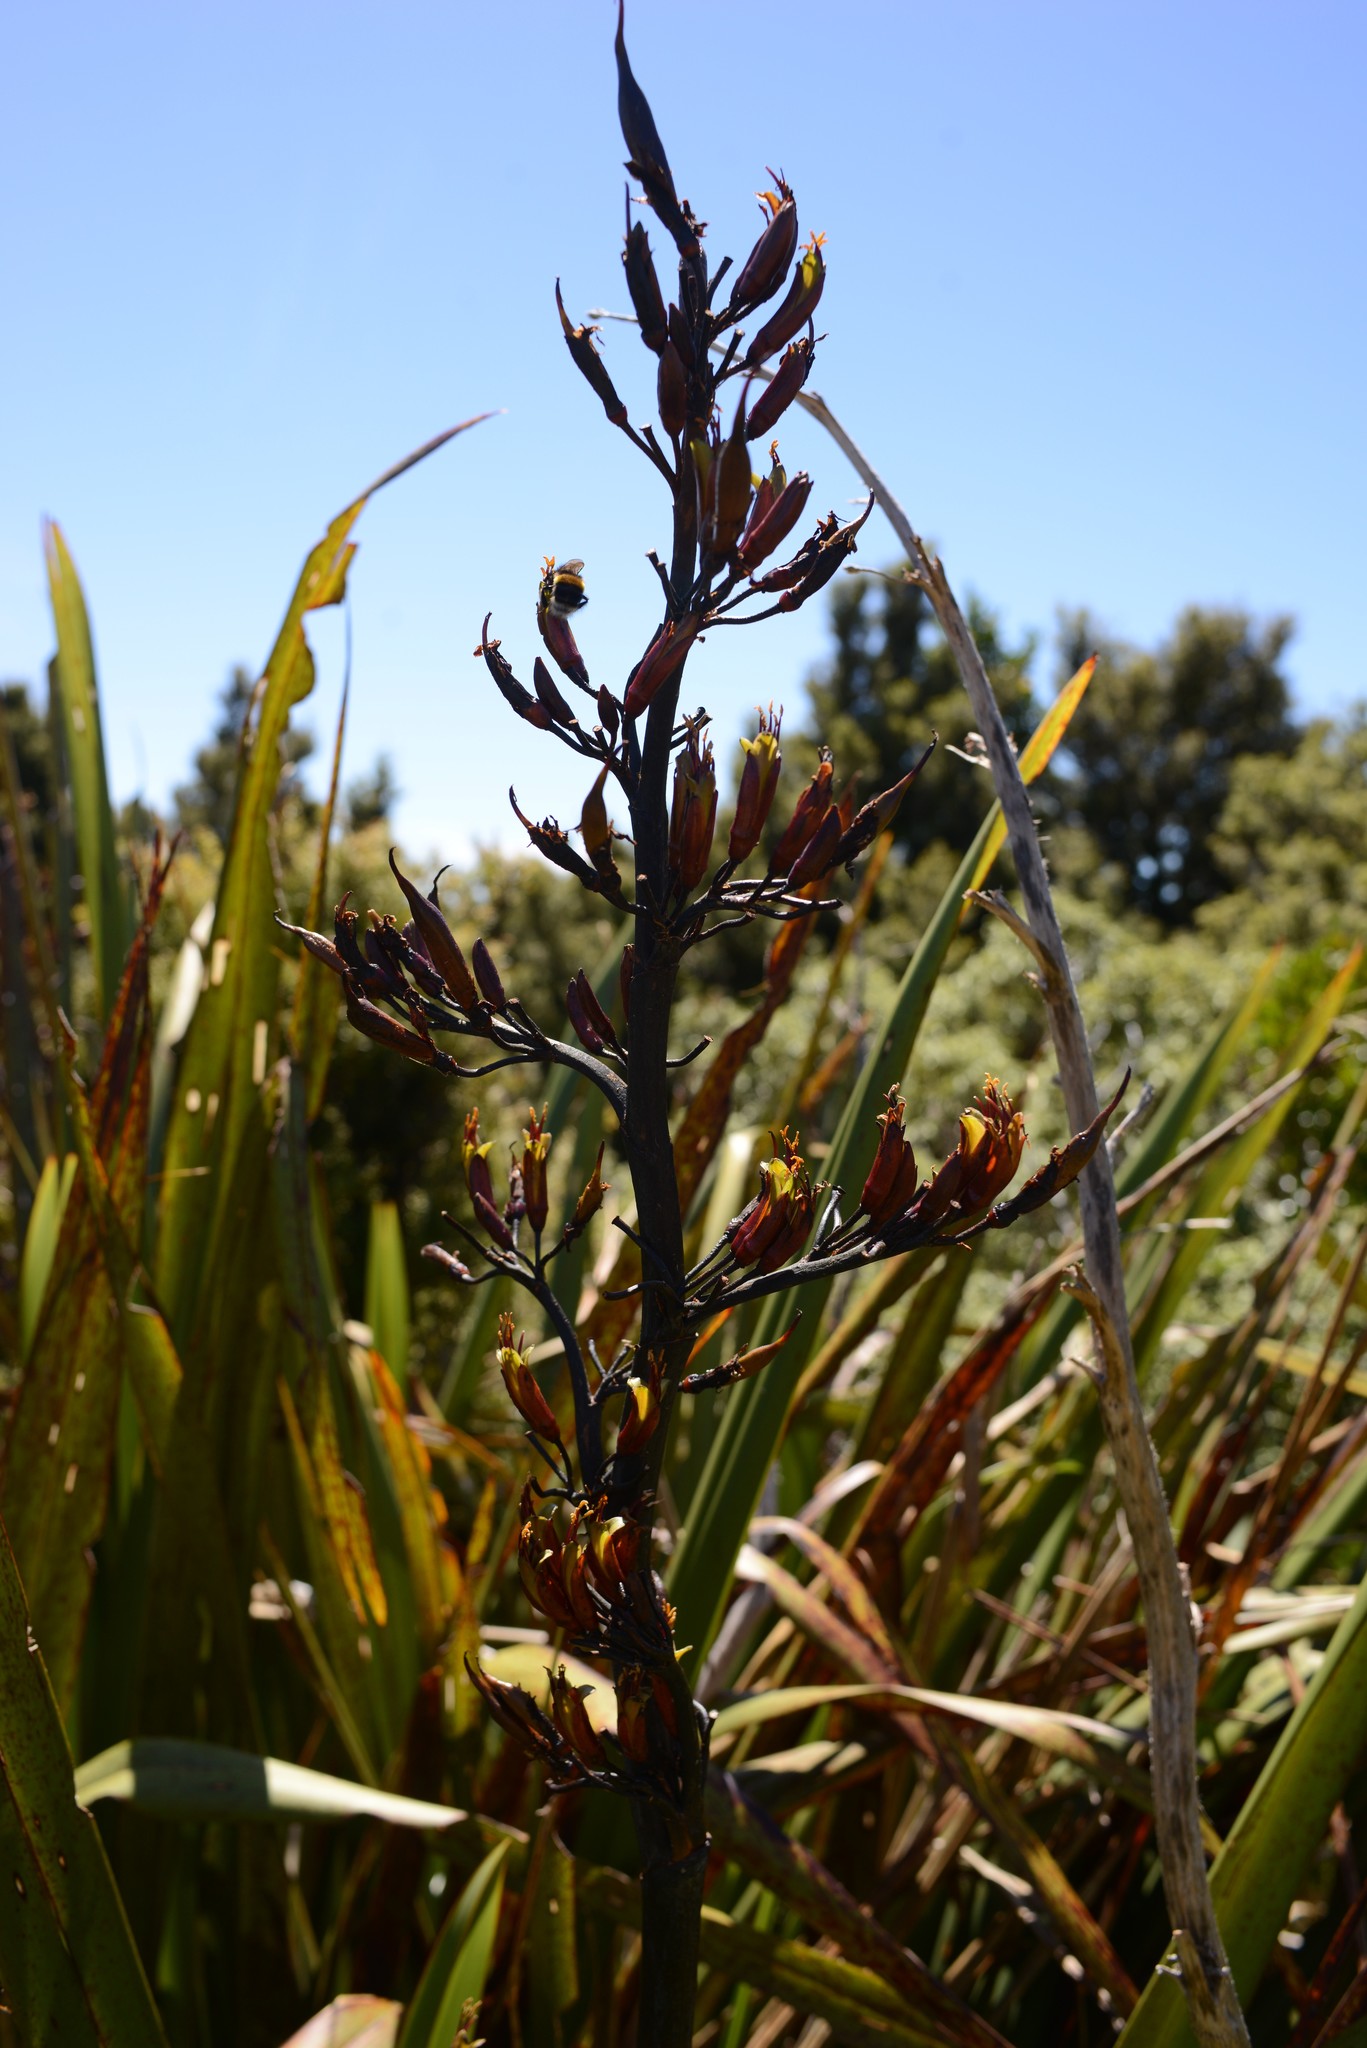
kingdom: Plantae
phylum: Tracheophyta
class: Liliopsida
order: Asparagales
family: Asphodelaceae
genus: Phormium
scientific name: Phormium colensoi
